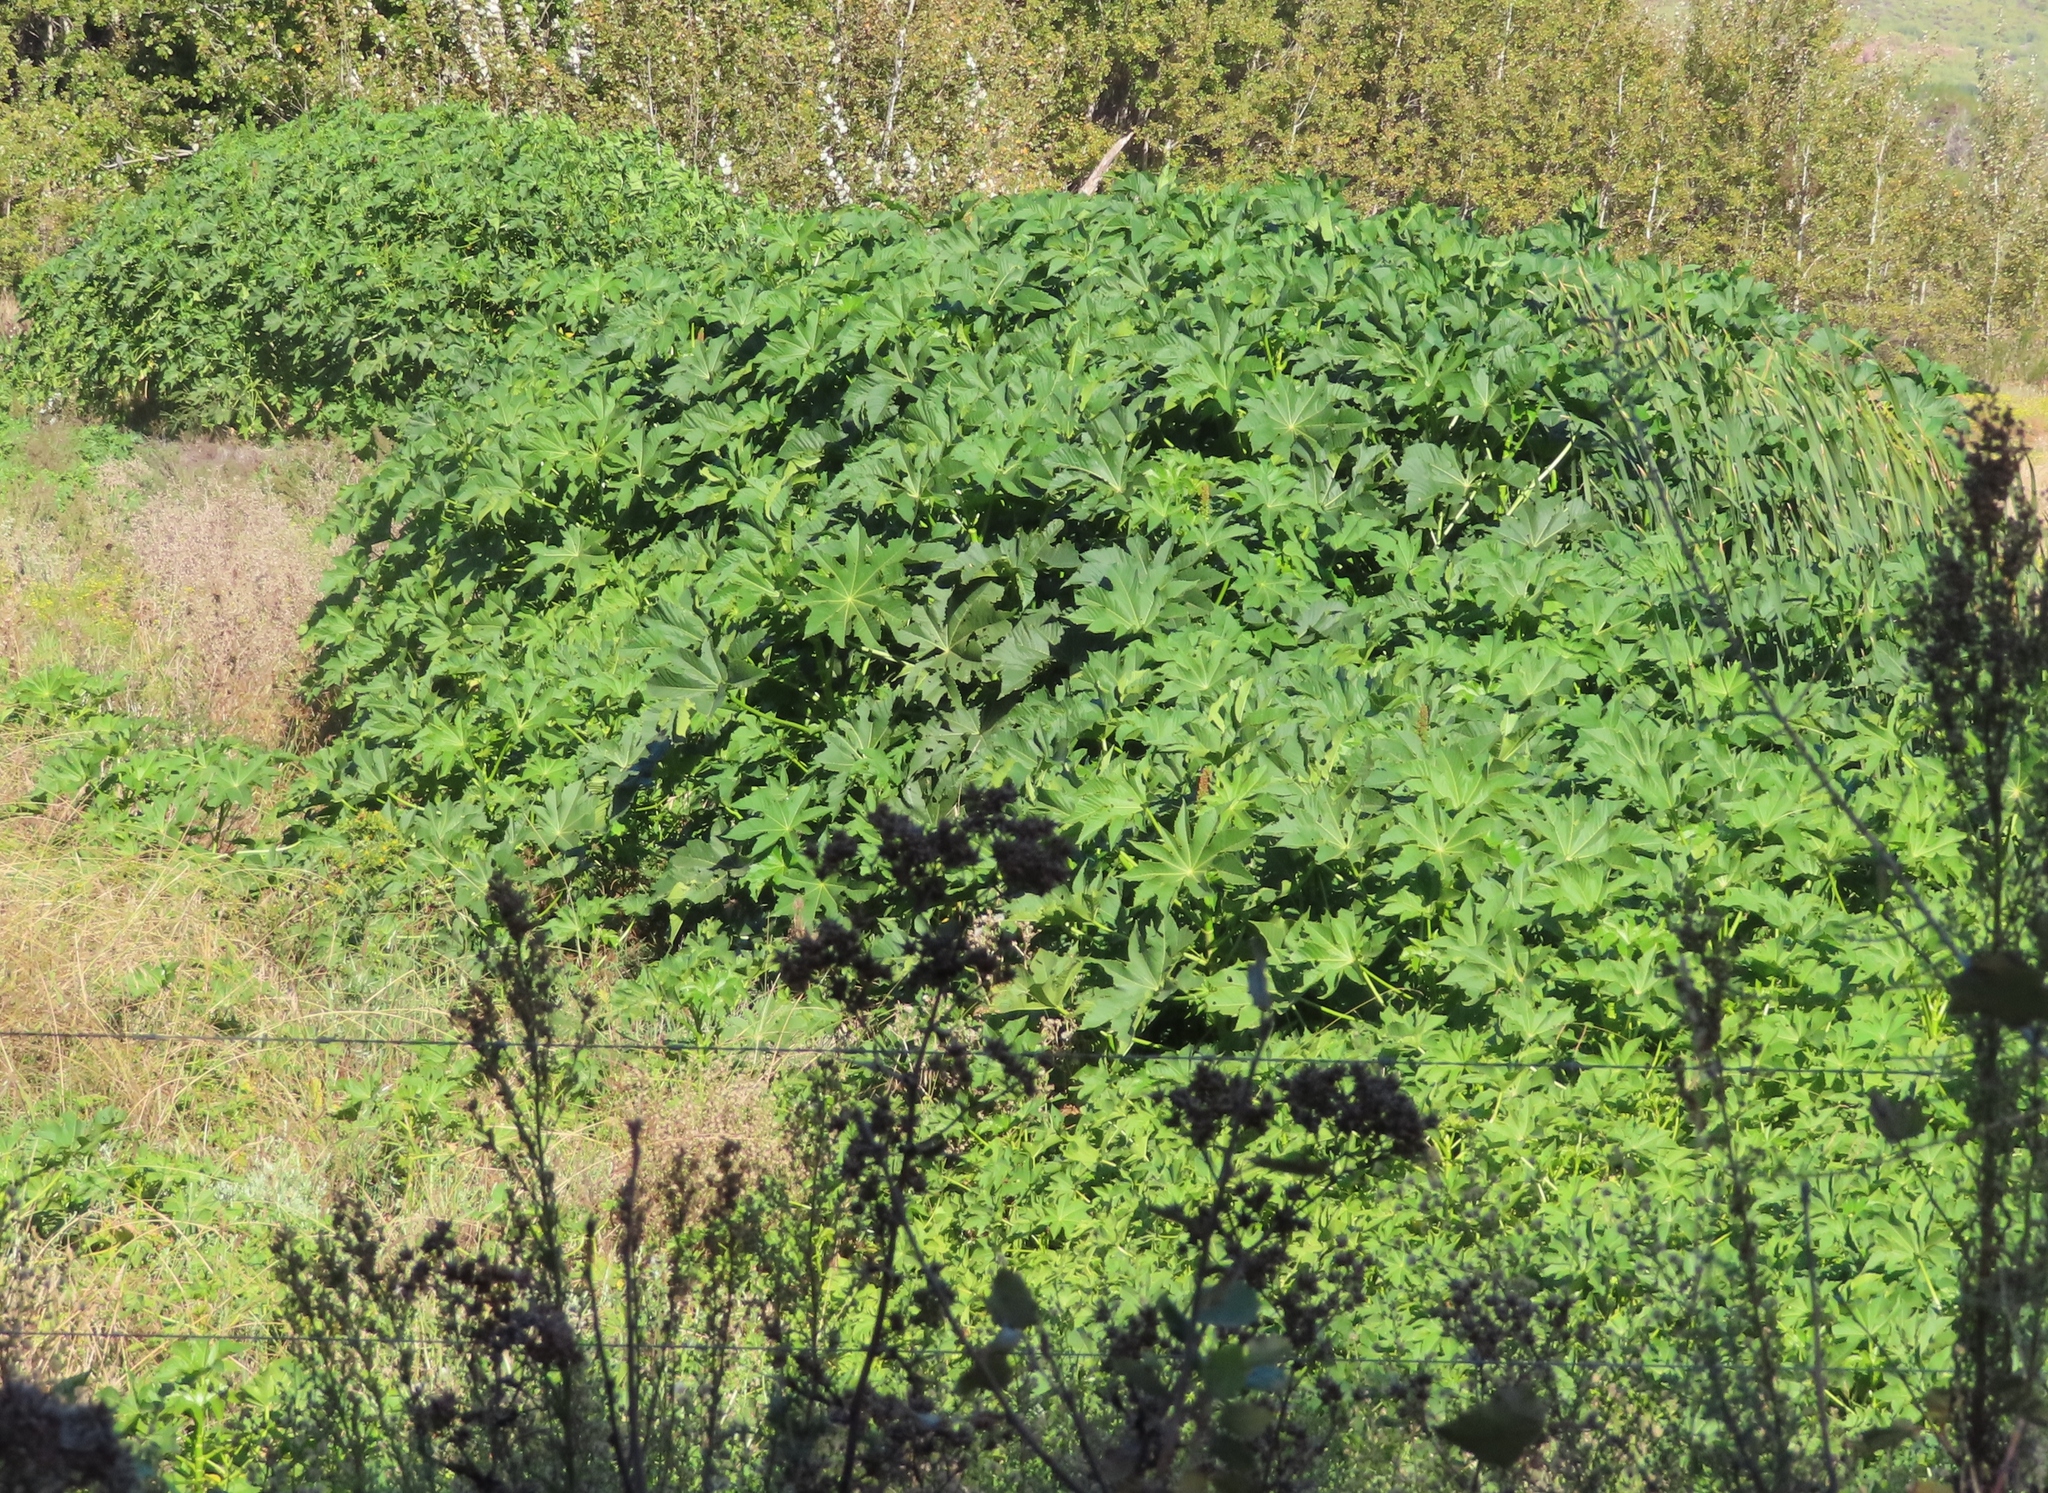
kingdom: Plantae
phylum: Tracheophyta
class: Magnoliopsida
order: Malpighiales
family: Euphorbiaceae
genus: Ricinus
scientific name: Ricinus communis
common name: Castor-oil-plant
